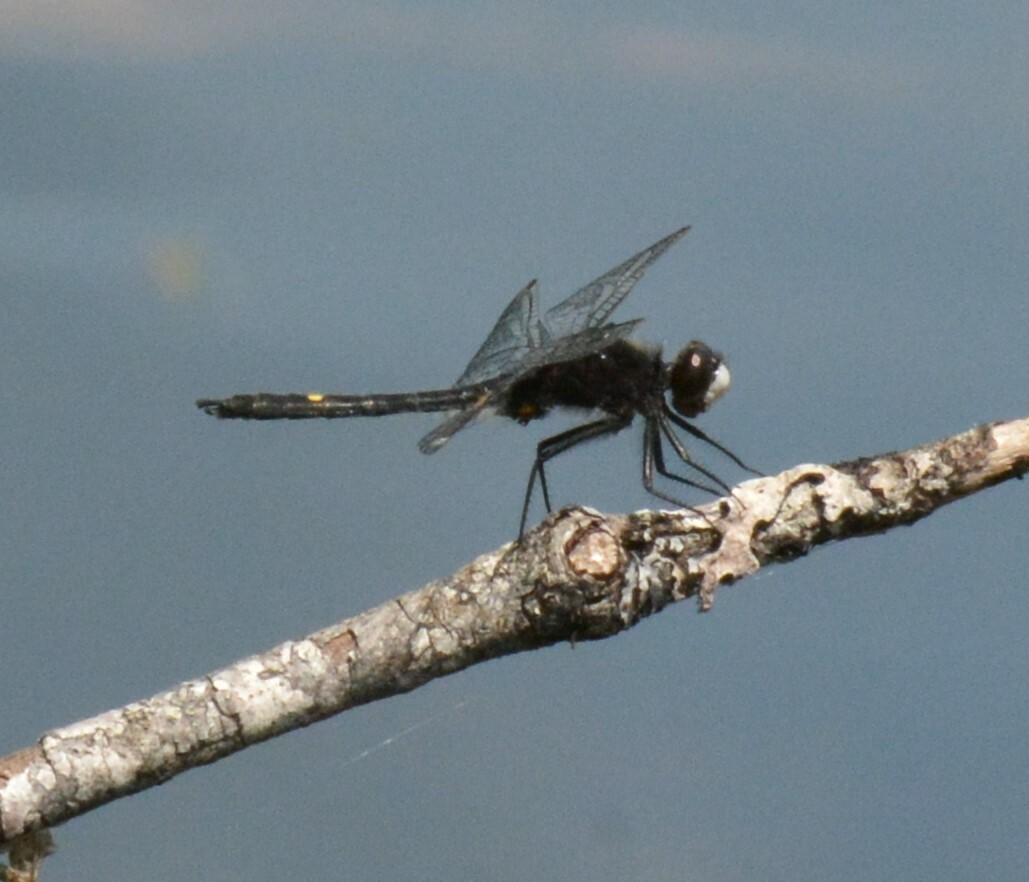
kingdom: Animalia
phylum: Arthropoda
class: Insecta
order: Odonata
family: Libellulidae
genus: Leucorrhinia
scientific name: Leucorrhinia intacta
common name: Dot-tailed whiteface
